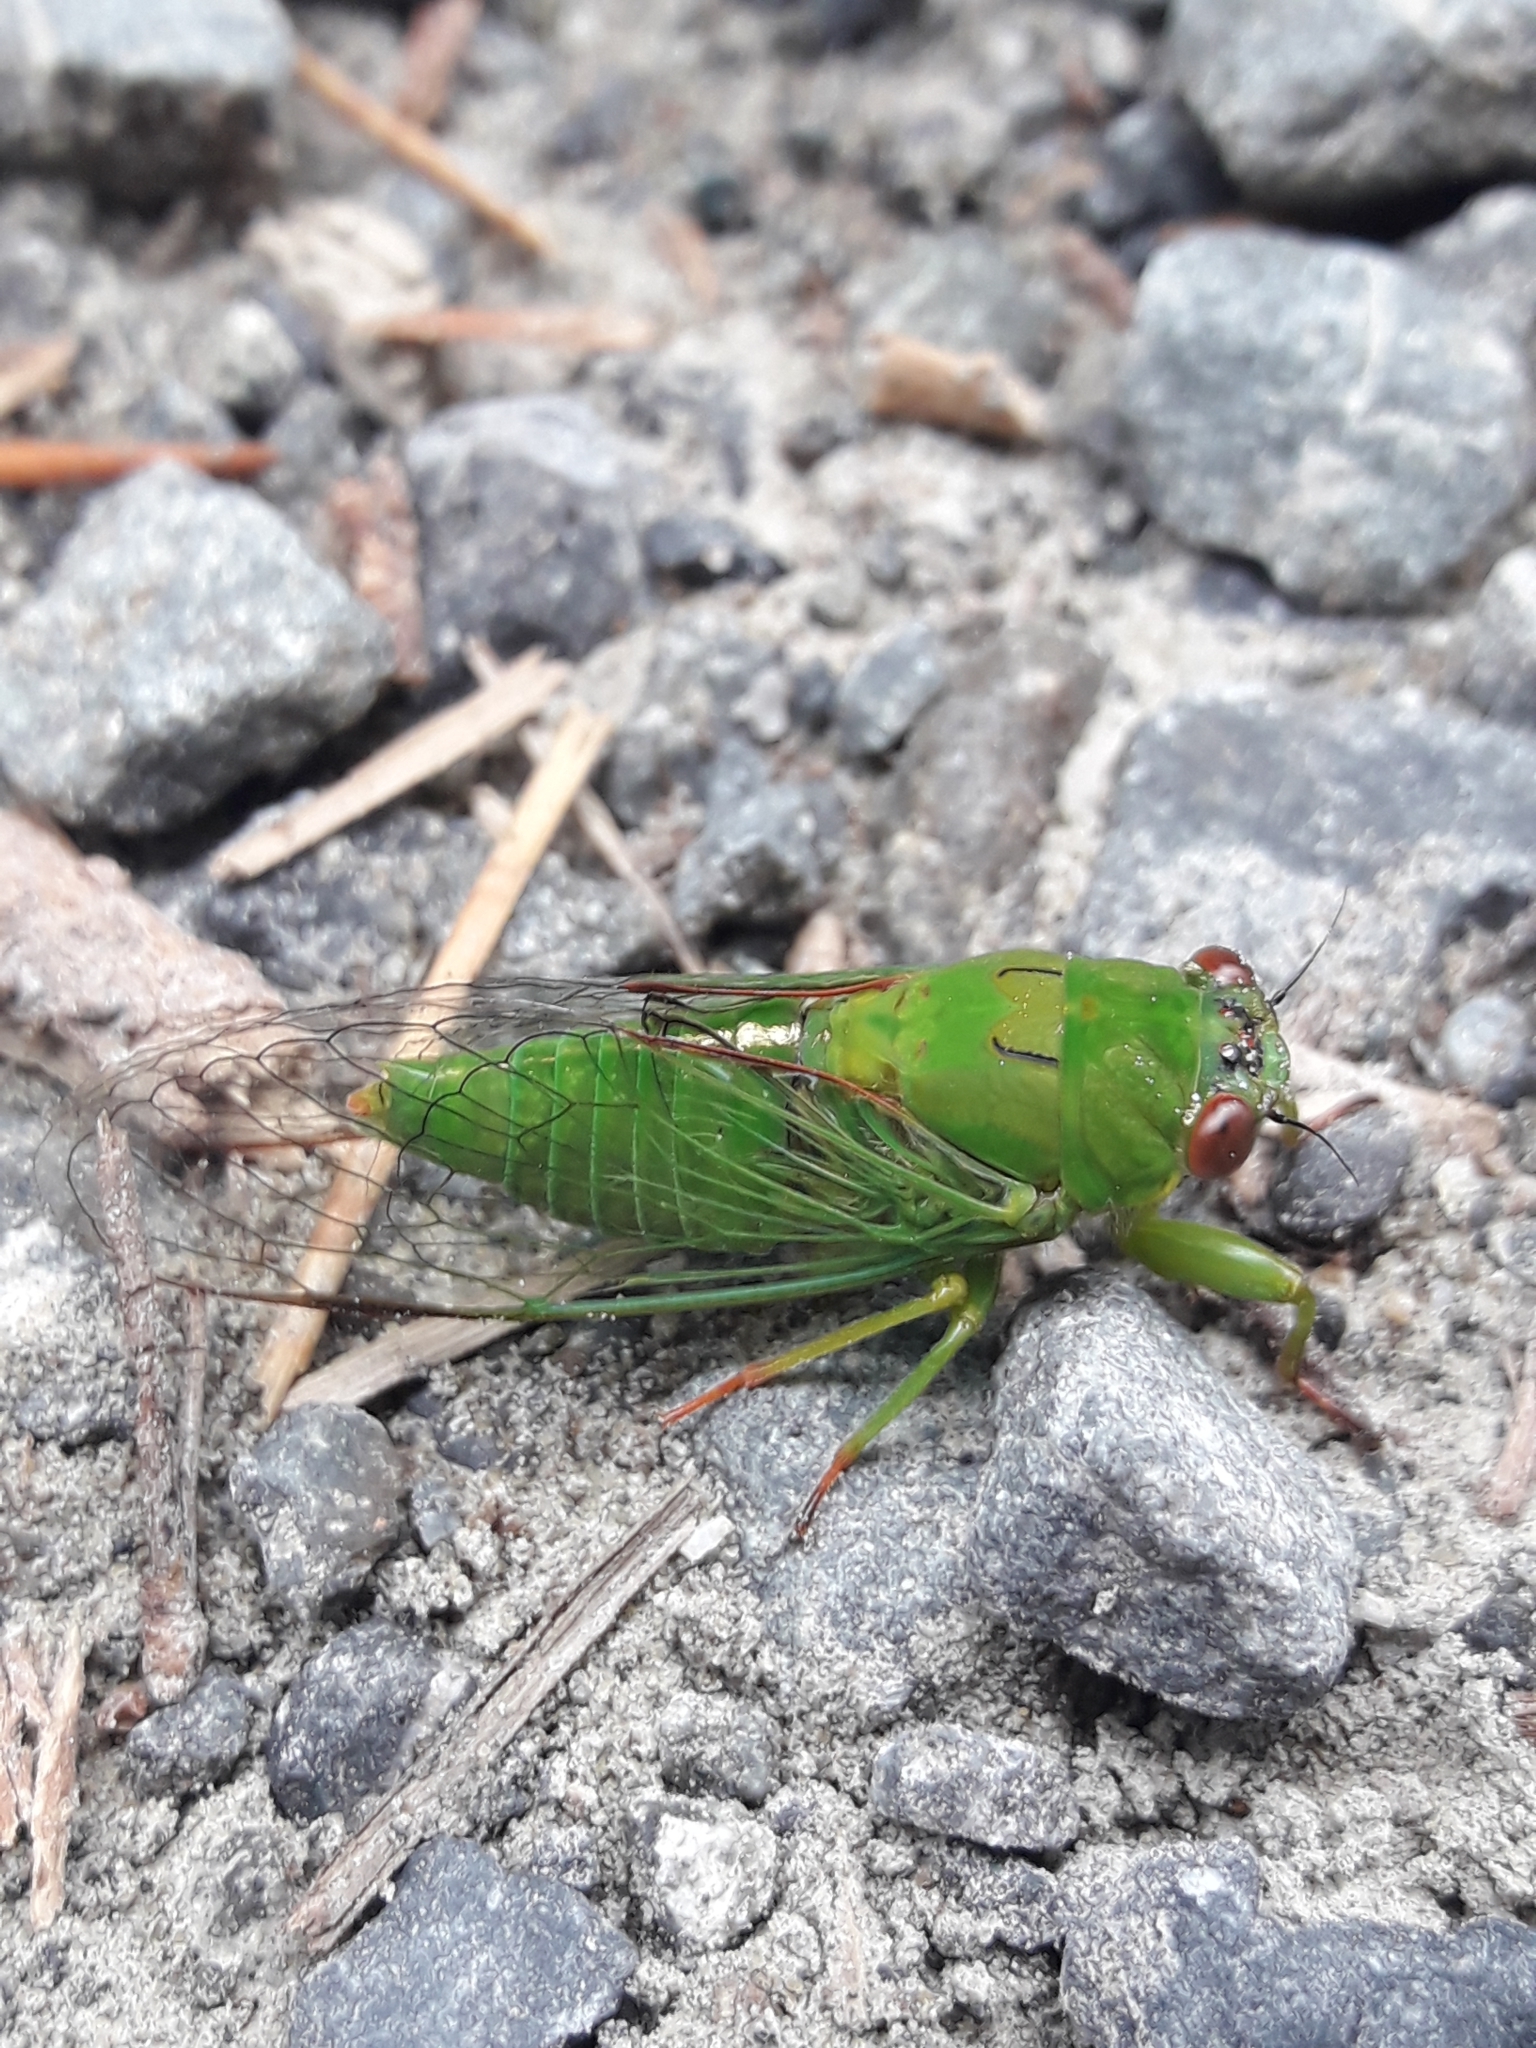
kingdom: Animalia
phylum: Arthropoda
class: Insecta
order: Hemiptera
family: Cicadidae
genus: Kikihia
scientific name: Kikihia ochrina
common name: April green cicada
